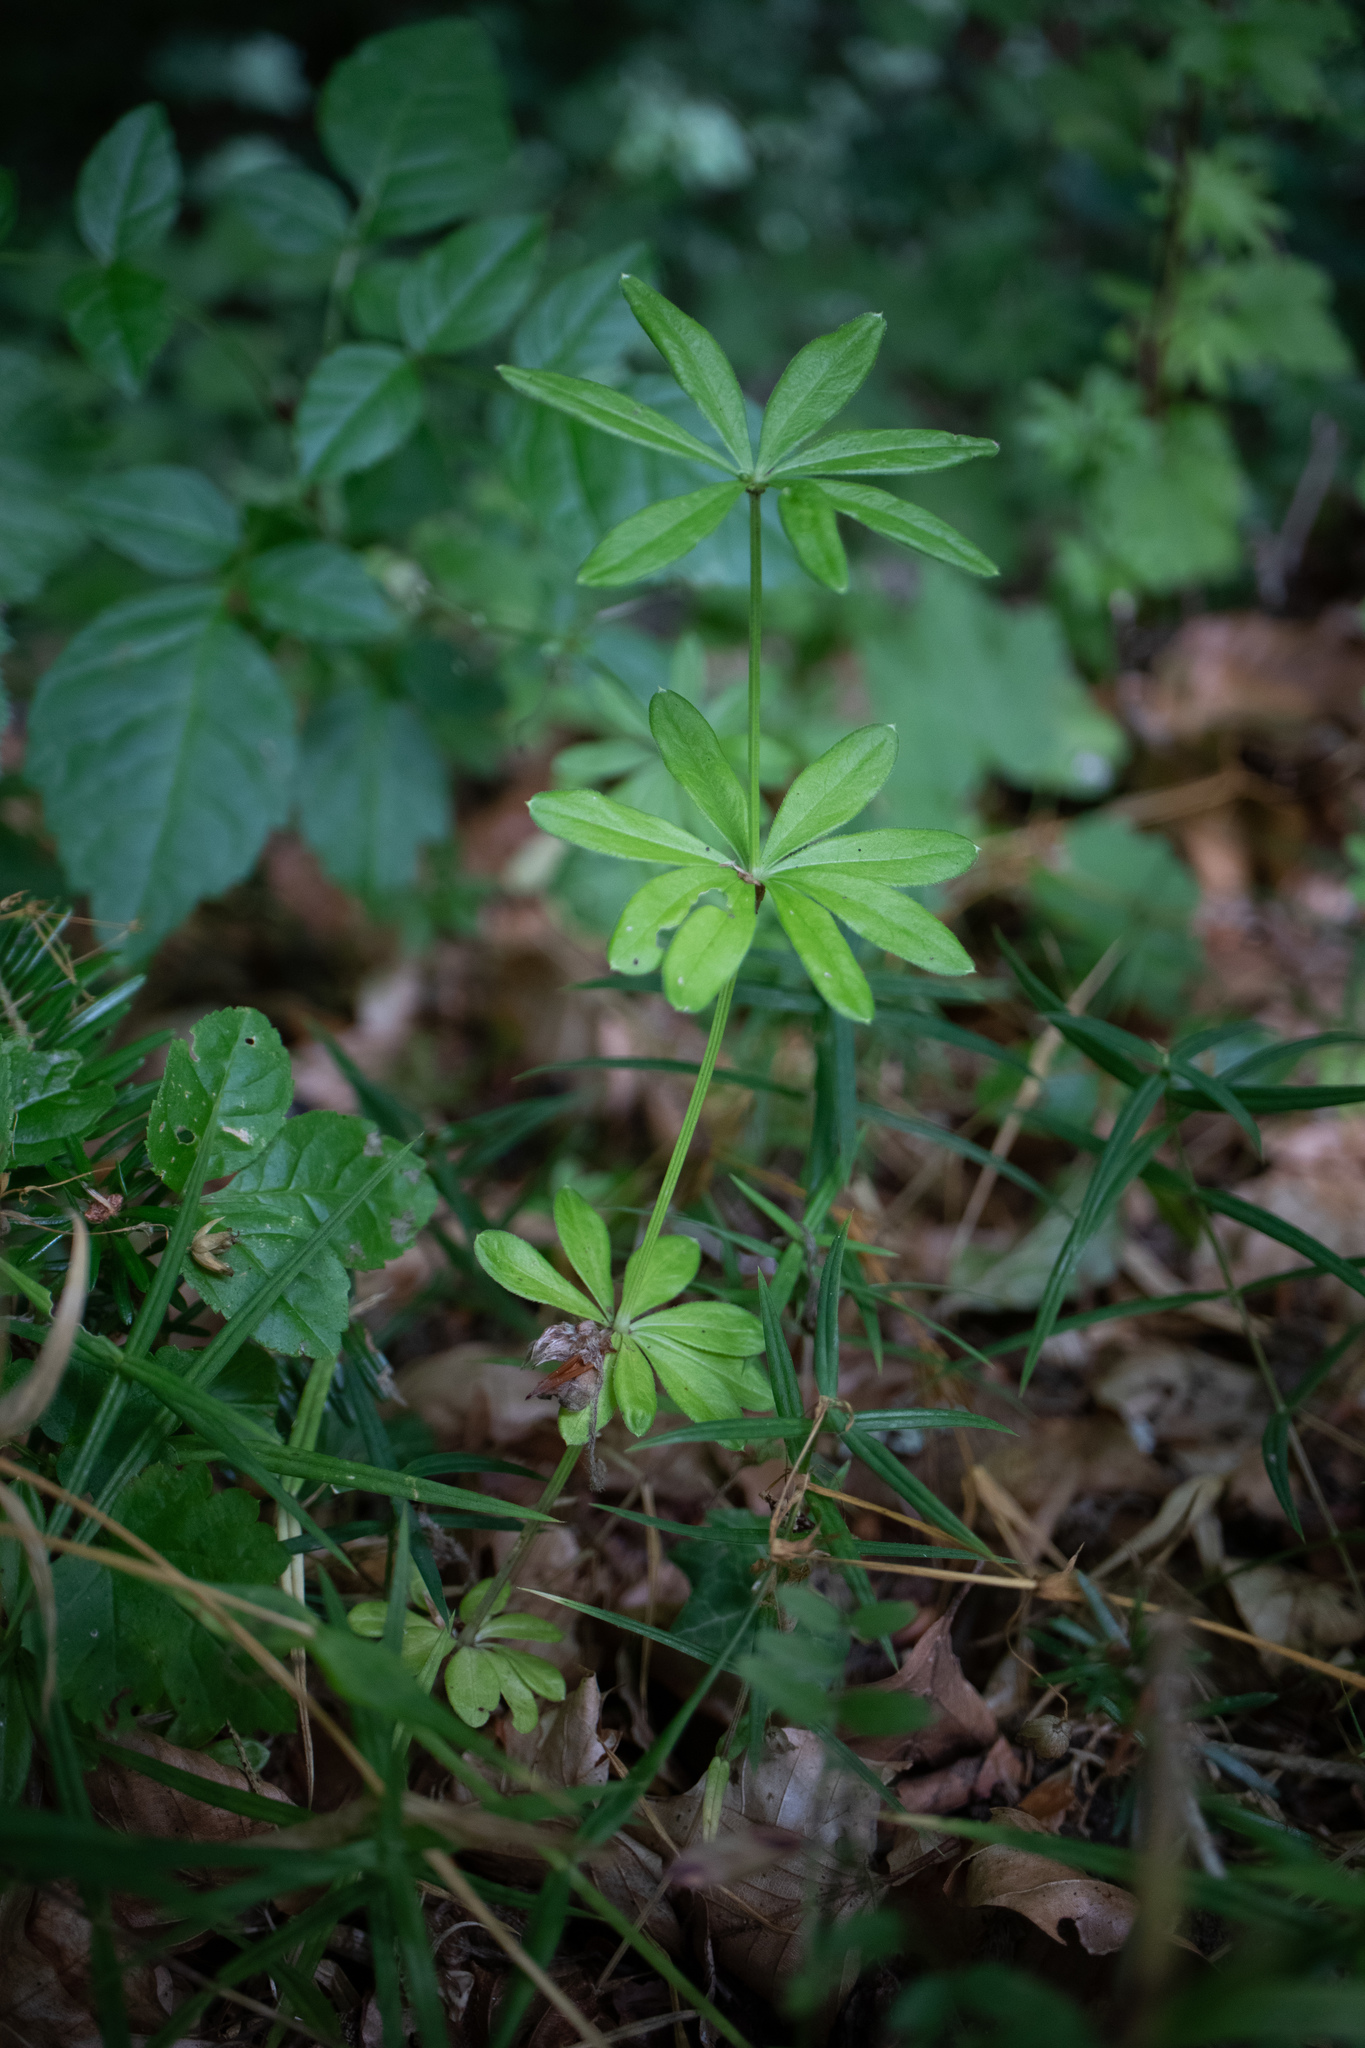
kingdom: Plantae
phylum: Tracheophyta
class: Magnoliopsida
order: Gentianales
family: Rubiaceae
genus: Galium
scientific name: Galium odoratum
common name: Sweet woodruff
